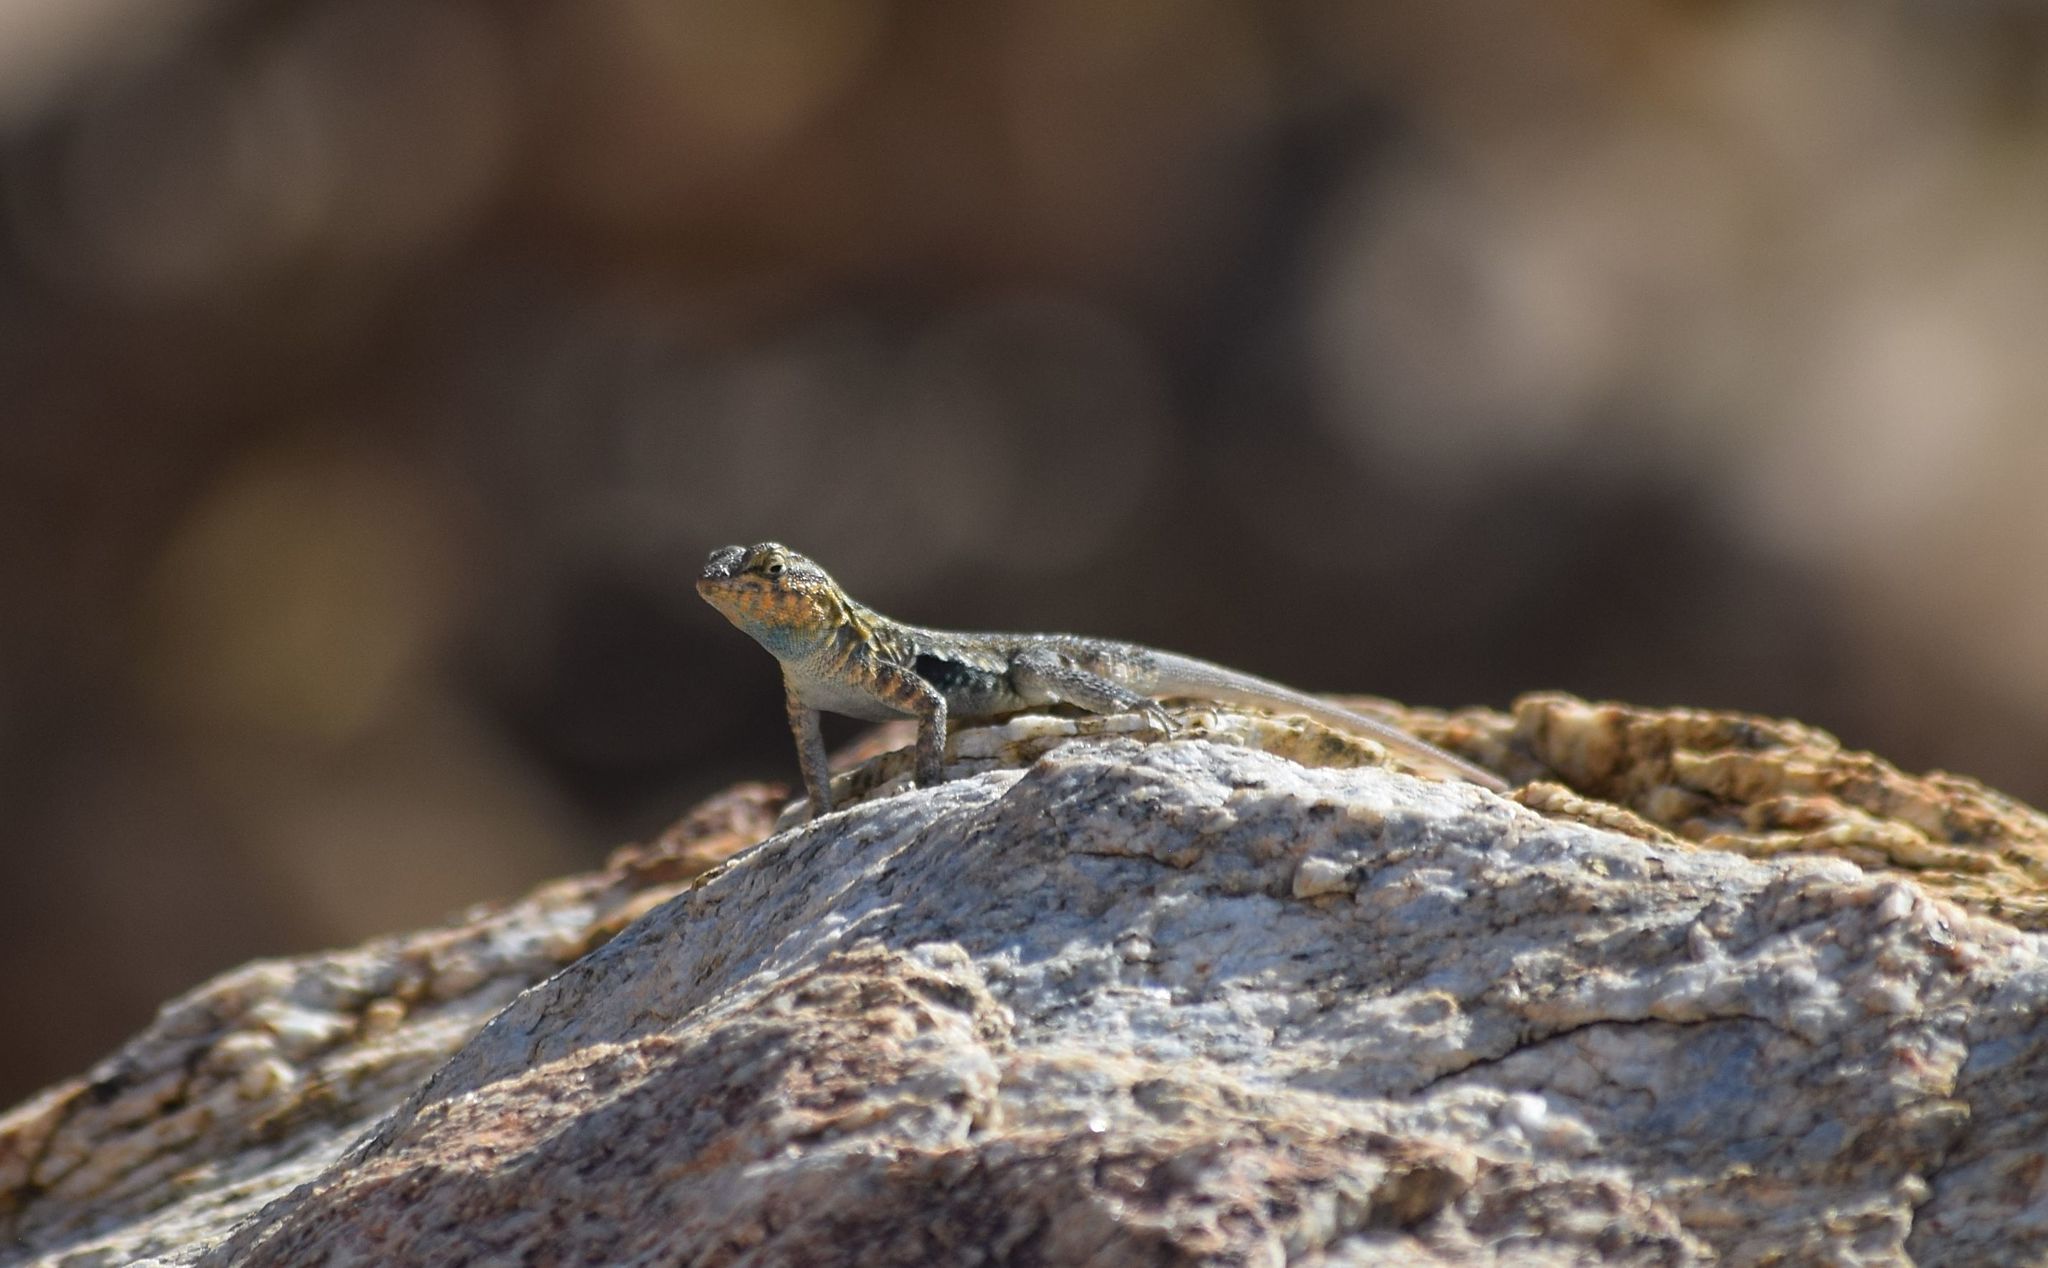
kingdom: Animalia
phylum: Chordata
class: Squamata
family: Phrynosomatidae
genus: Uta
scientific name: Uta stansburiana
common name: Side-blotched lizard
